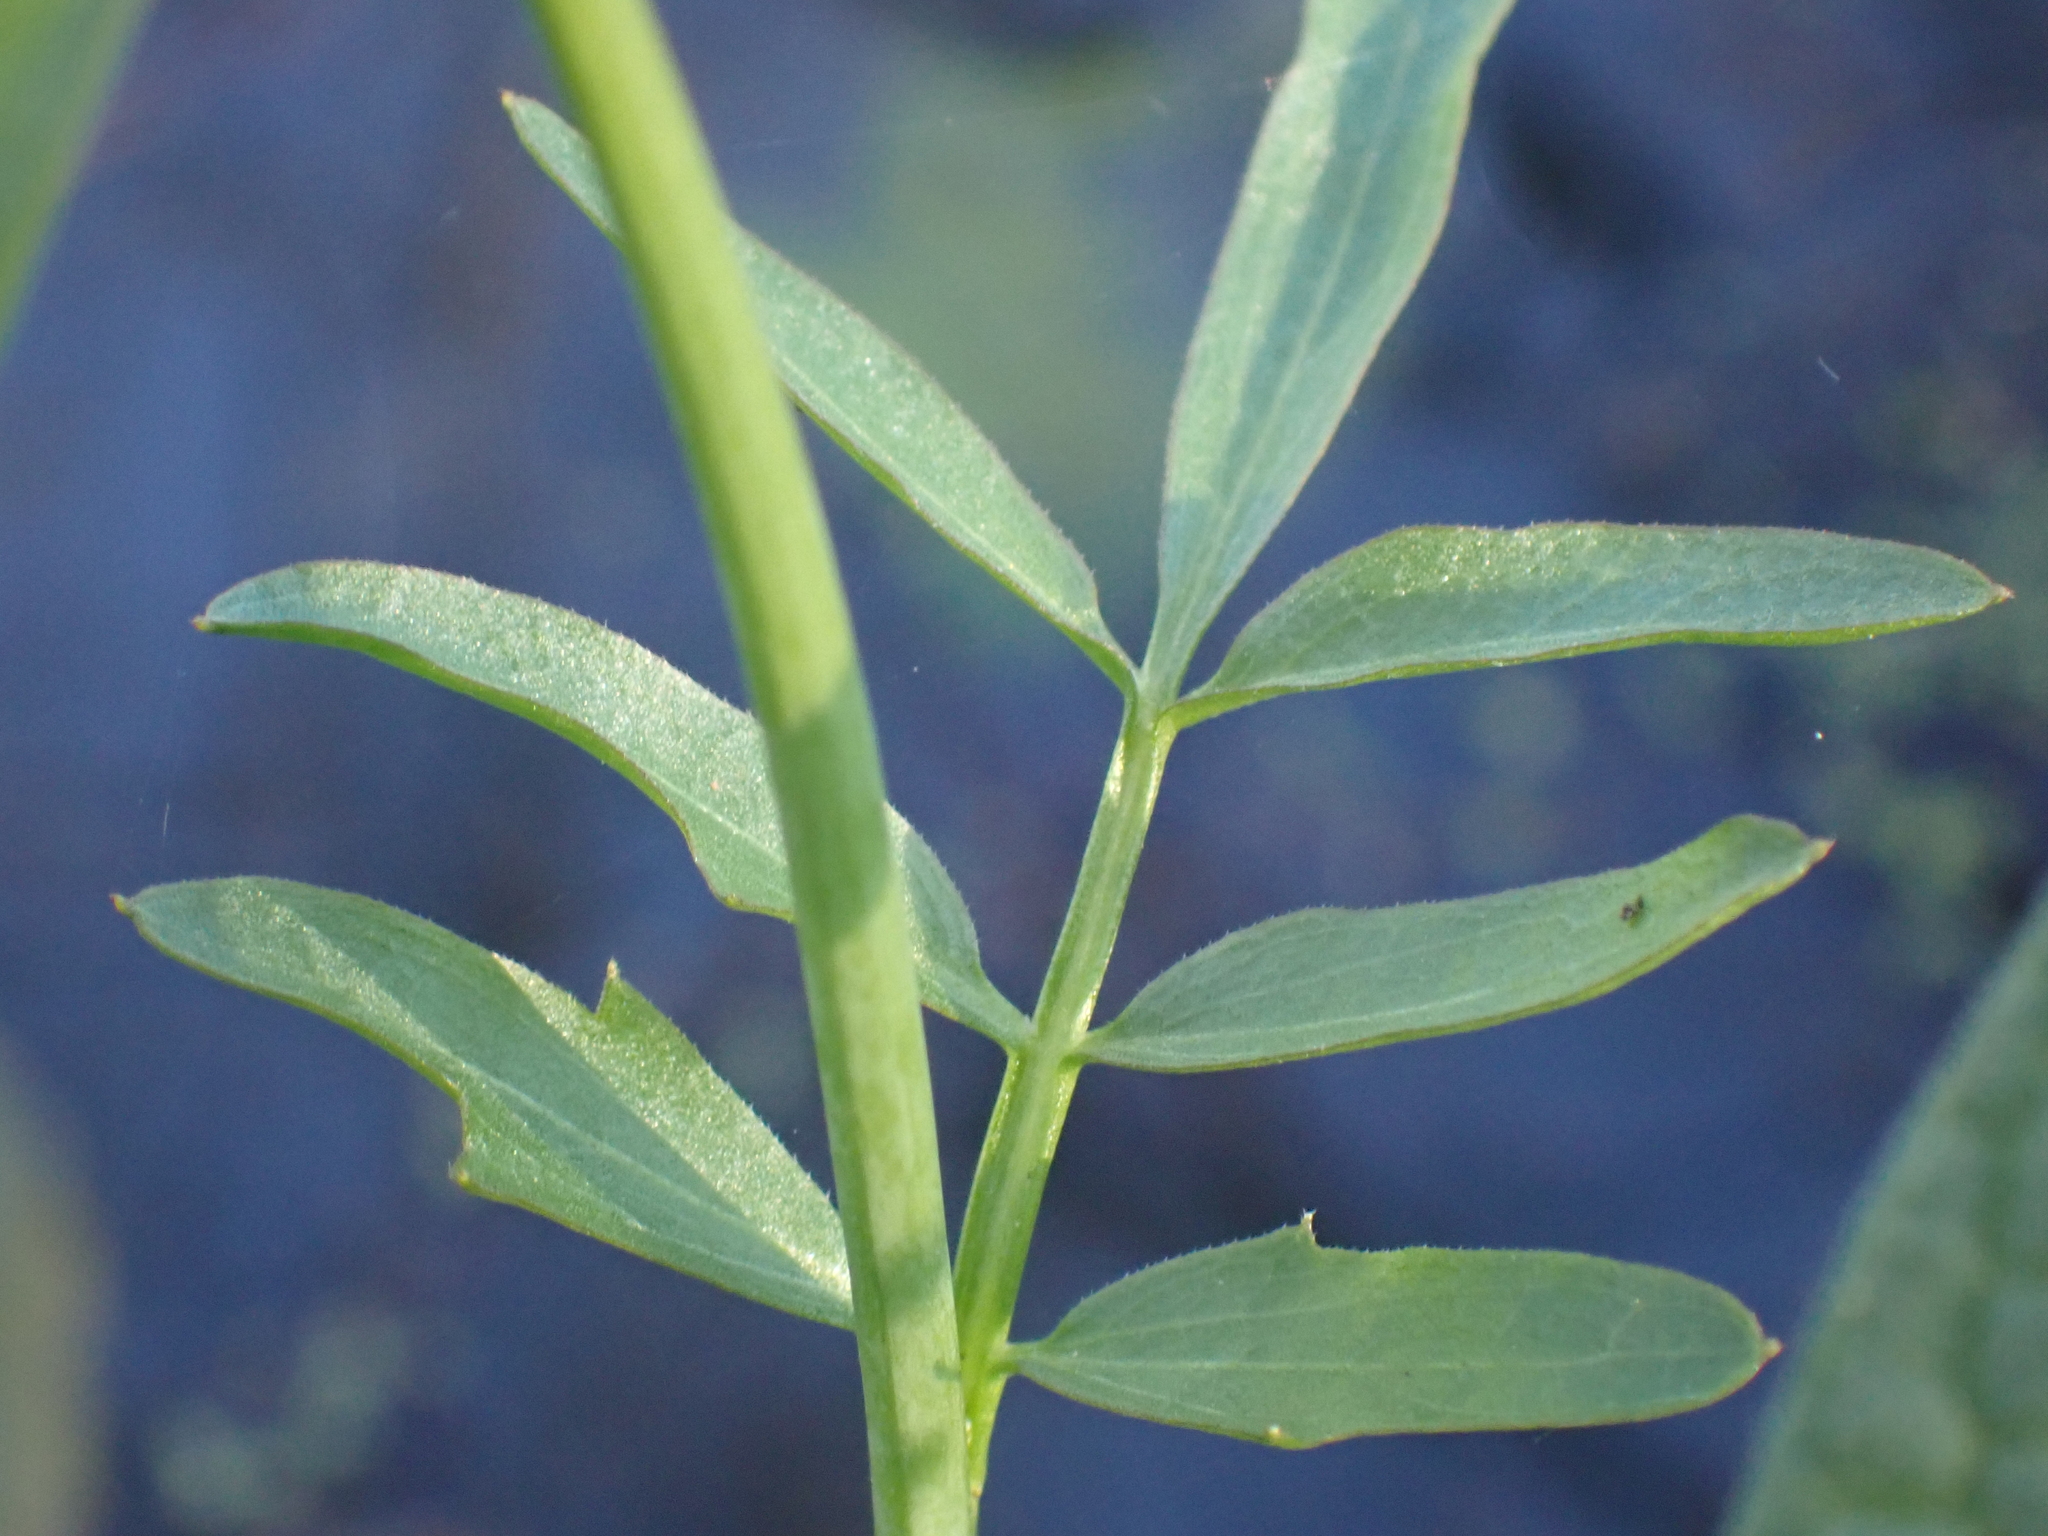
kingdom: Plantae
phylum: Tracheophyta
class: Magnoliopsida
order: Brassicales
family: Brassicaceae
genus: Cardamine
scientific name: Cardamine pratensis
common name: Cuckoo flower
